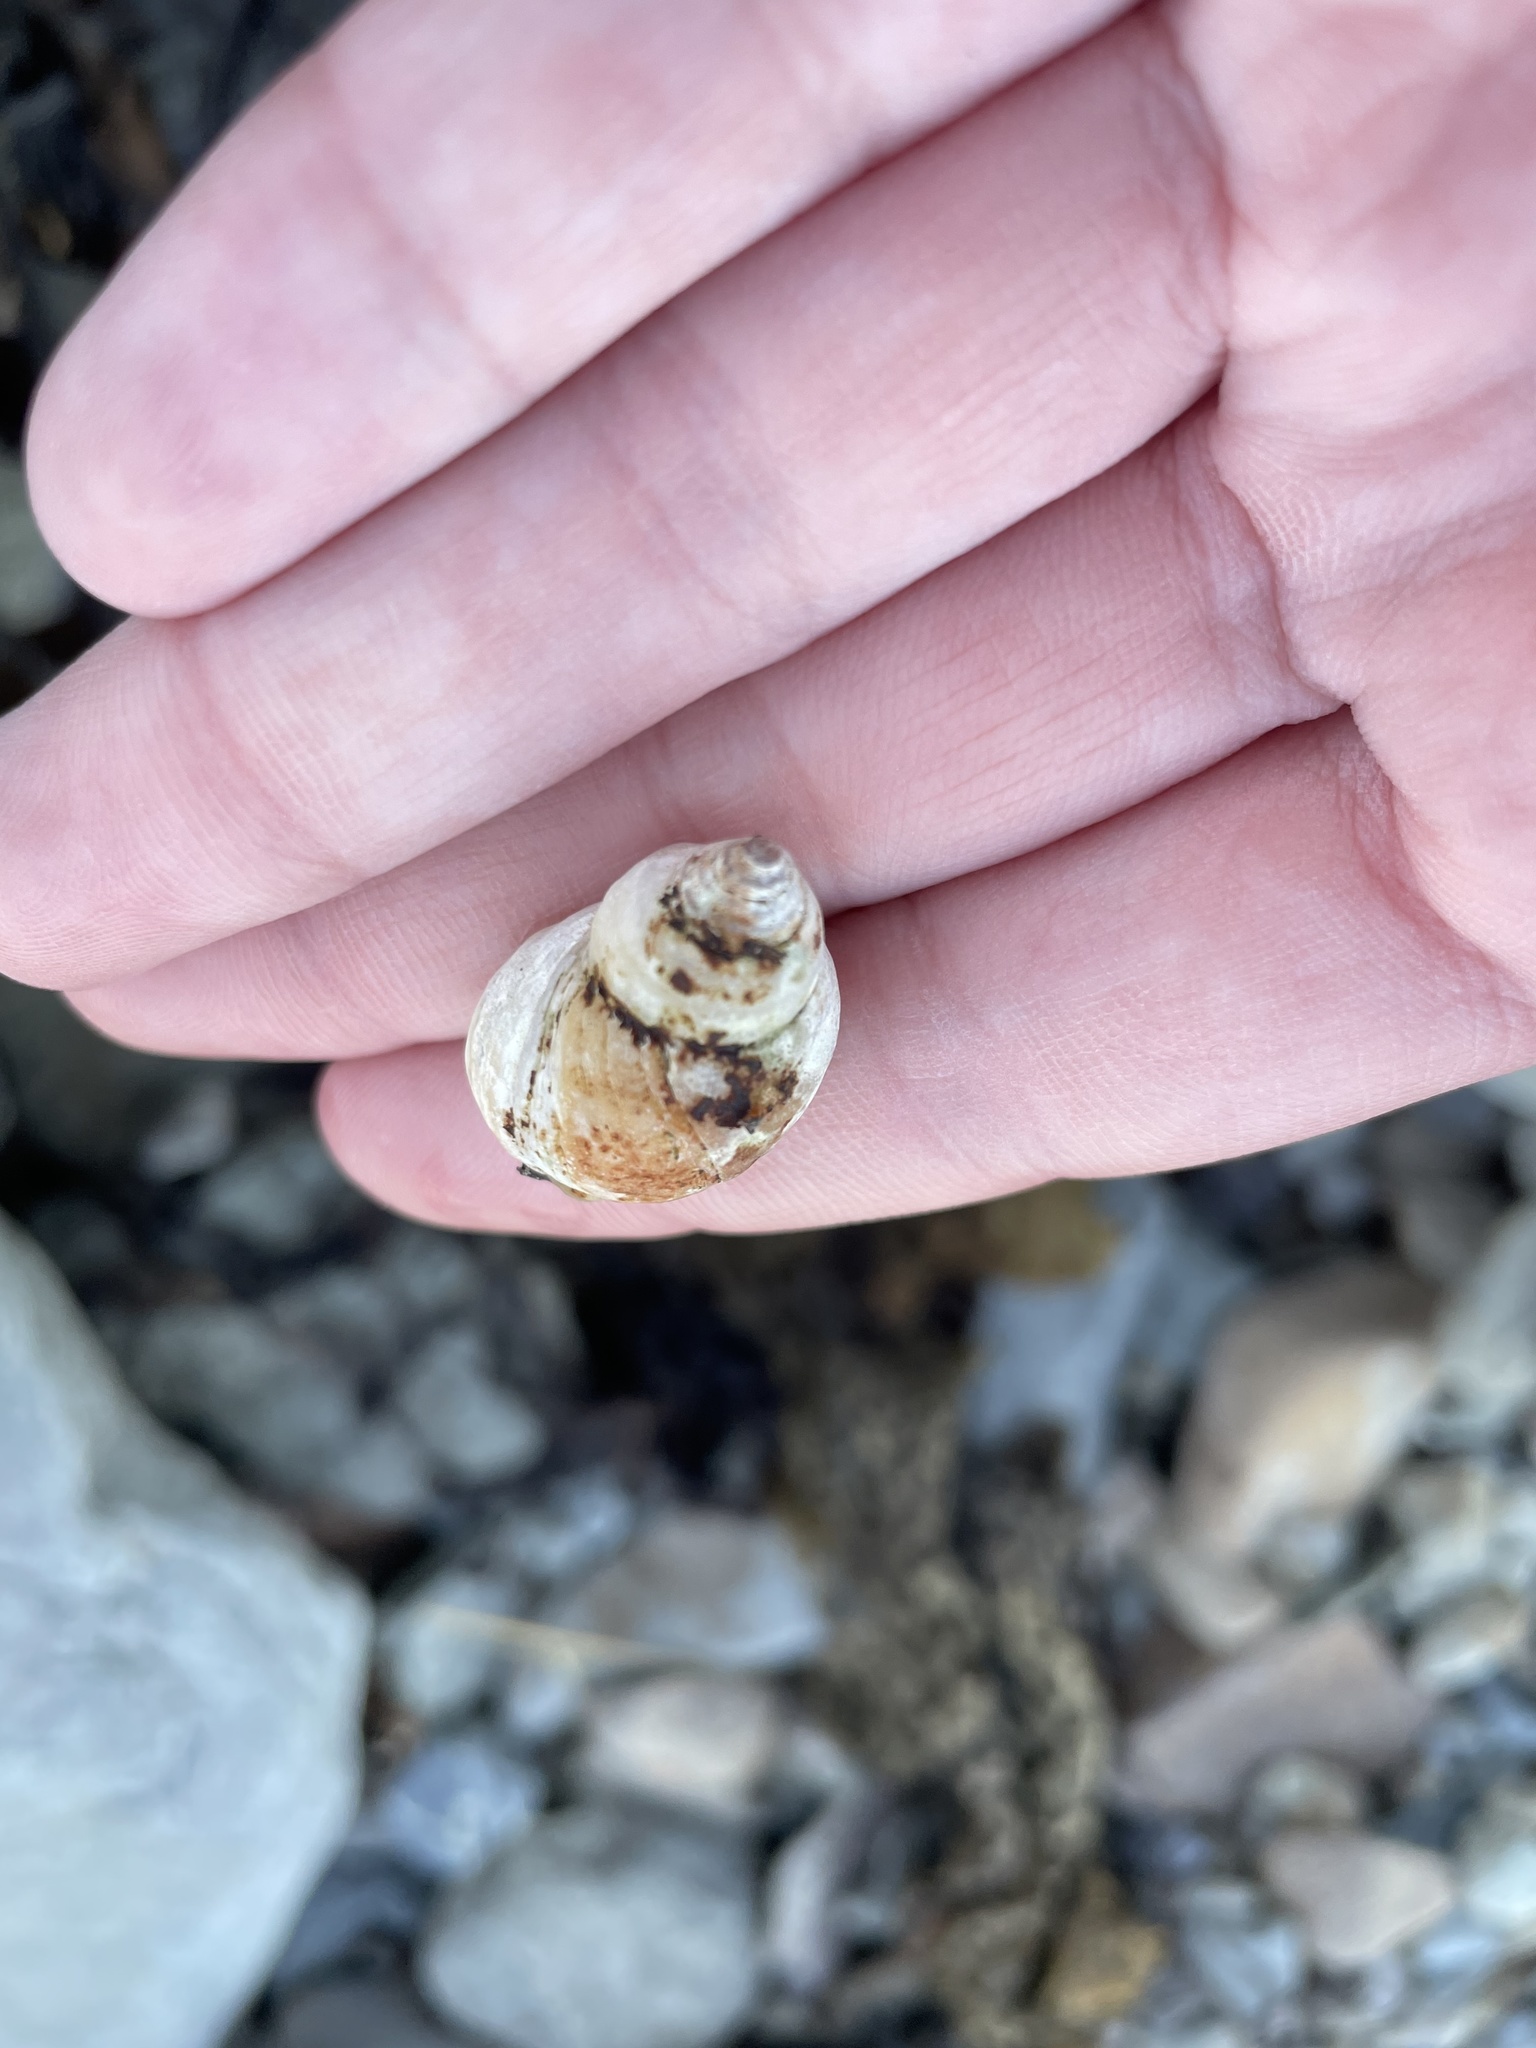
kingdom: Animalia
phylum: Mollusca
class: Gastropoda
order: Neogastropoda
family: Muricidae
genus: Nucella
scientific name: Nucella lapillus
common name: Dog whelk
